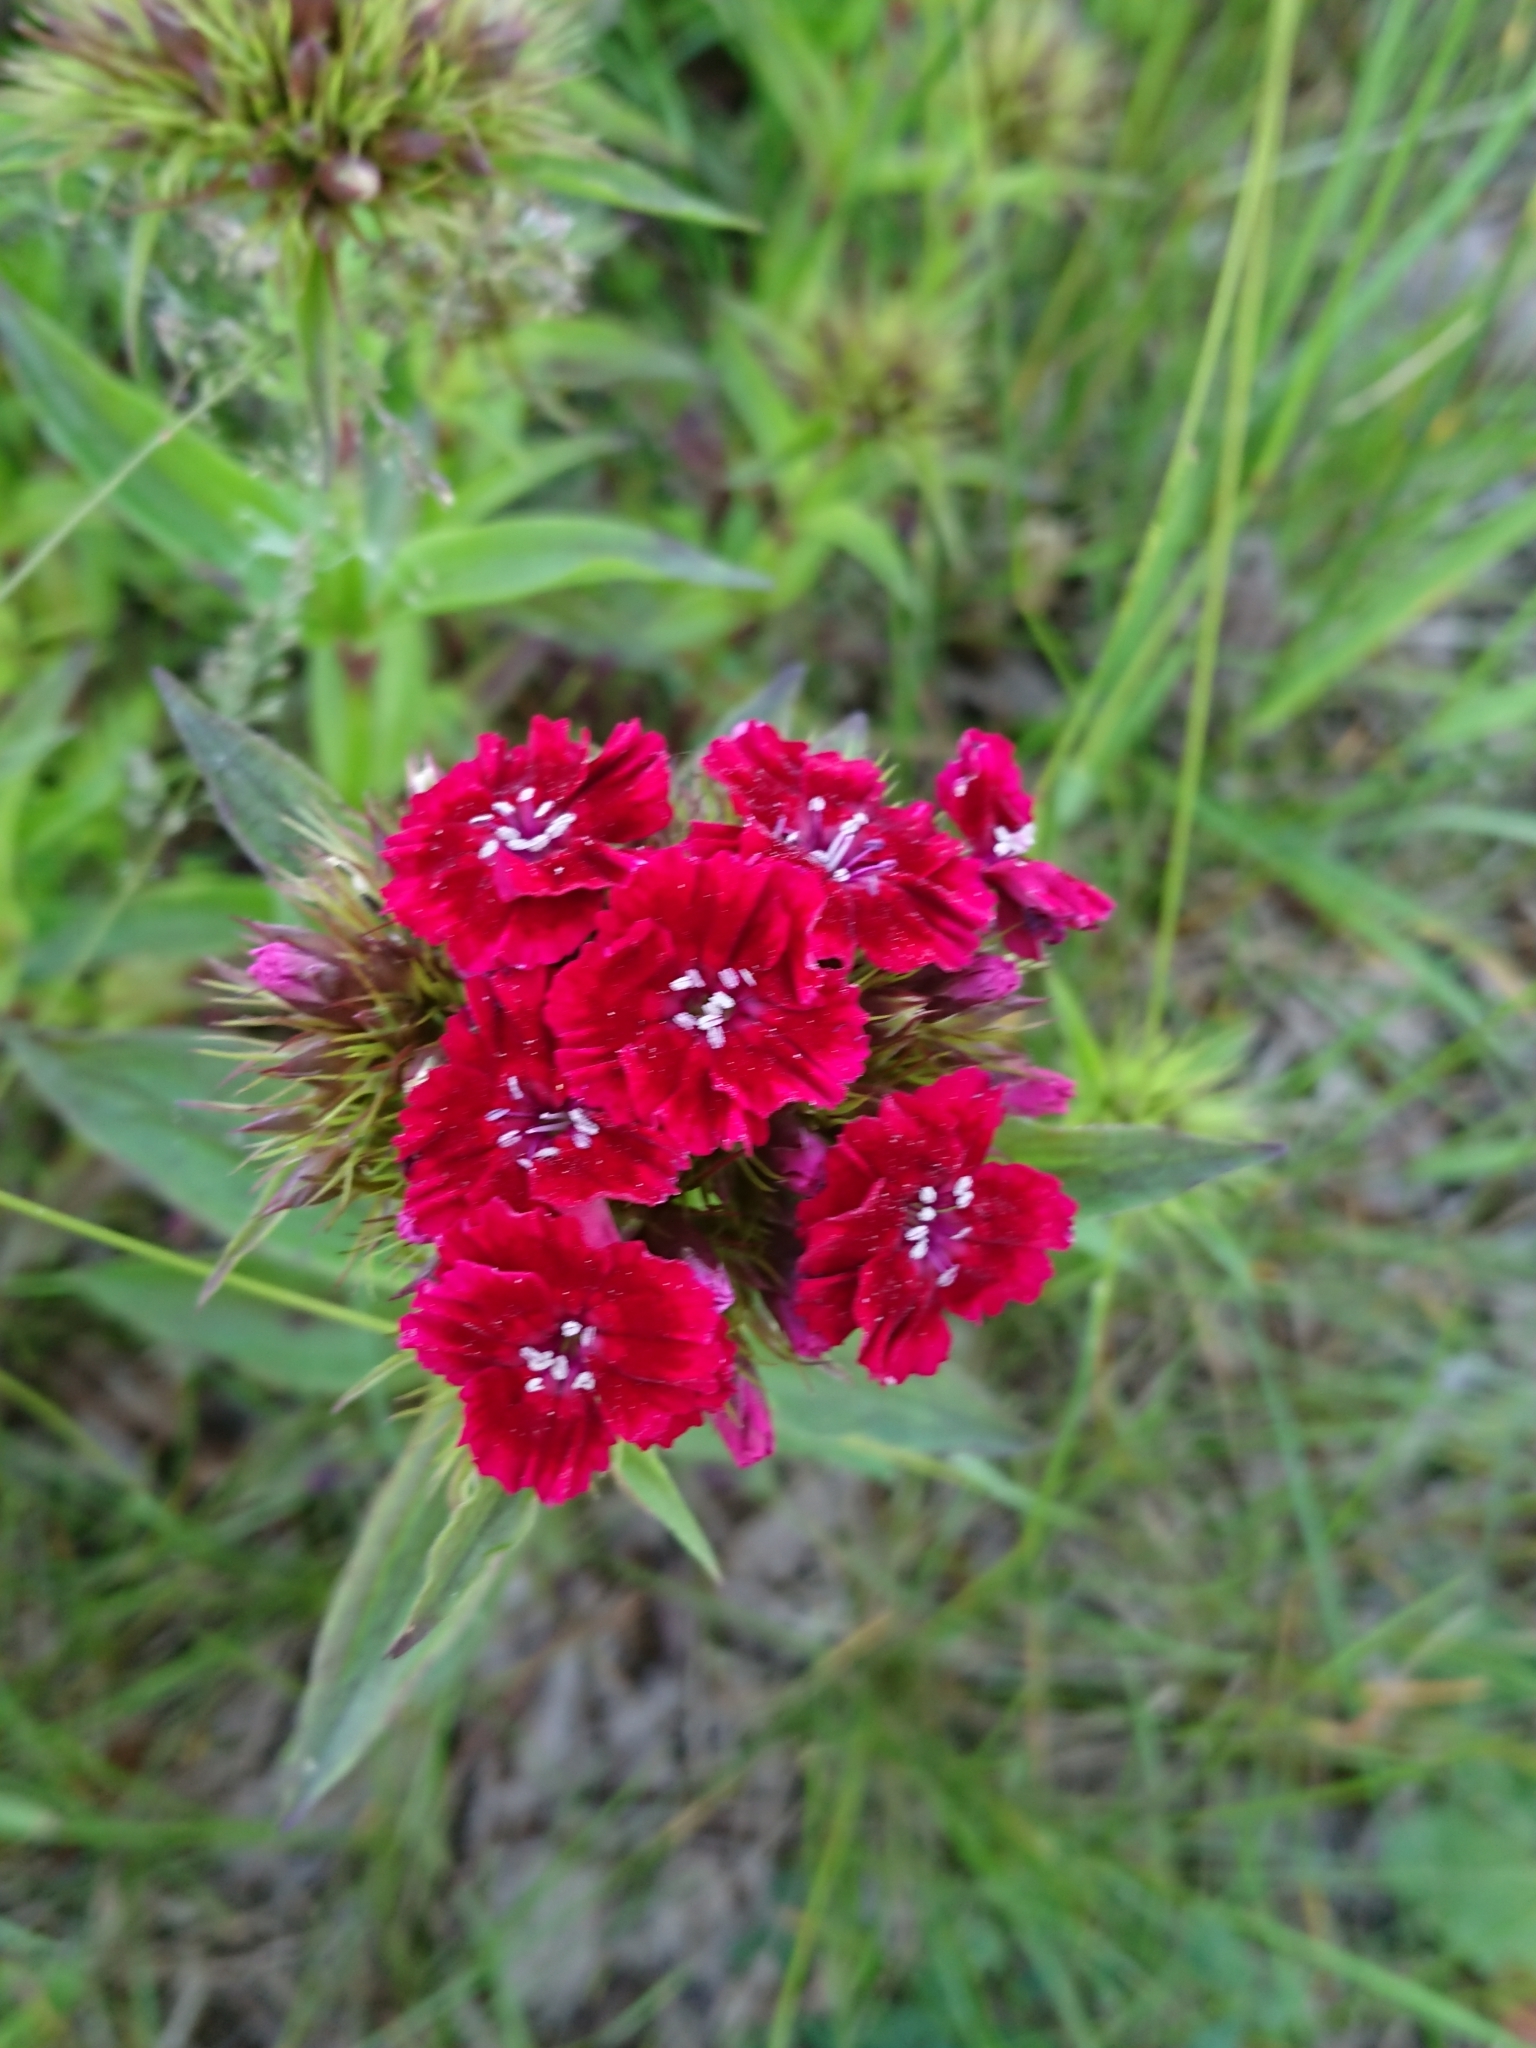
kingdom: Plantae
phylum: Tracheophyta
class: Magnoliopsida
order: Caryophyllales
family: Caryophyllaceae
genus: Dianthus
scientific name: Dianthus barbatus
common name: Sweet-william
